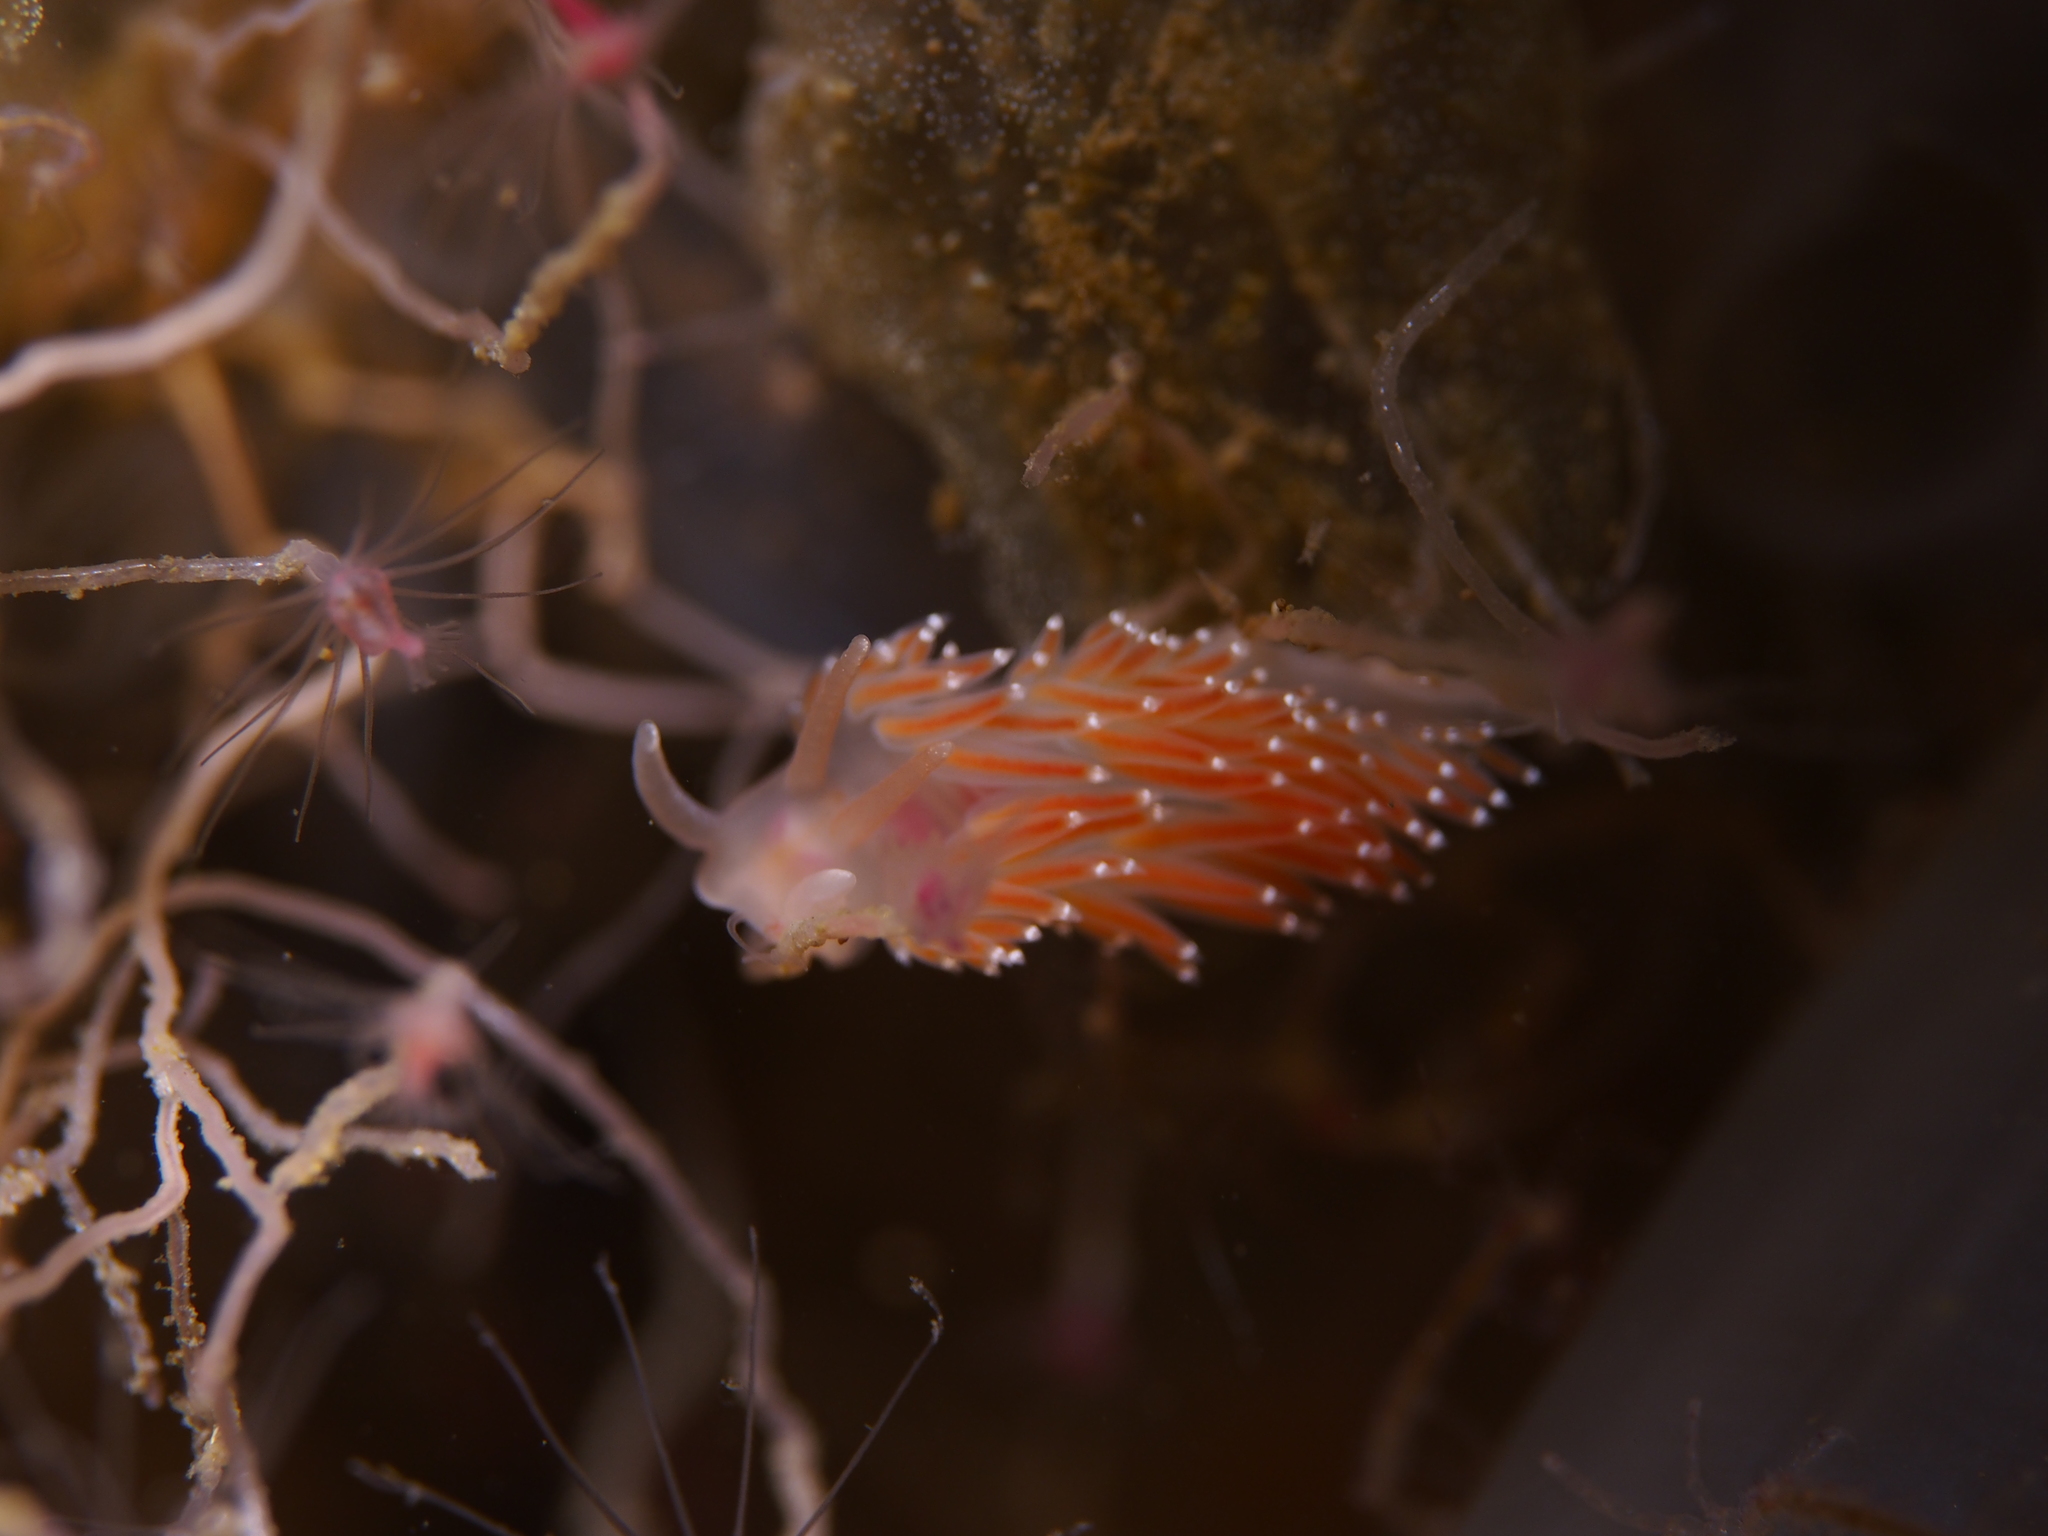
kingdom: Animalia
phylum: Mollusca
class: Gastropoda
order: Nudibranchia
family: Coryphellidae
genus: Coryphella
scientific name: Coryphella verrucosa
